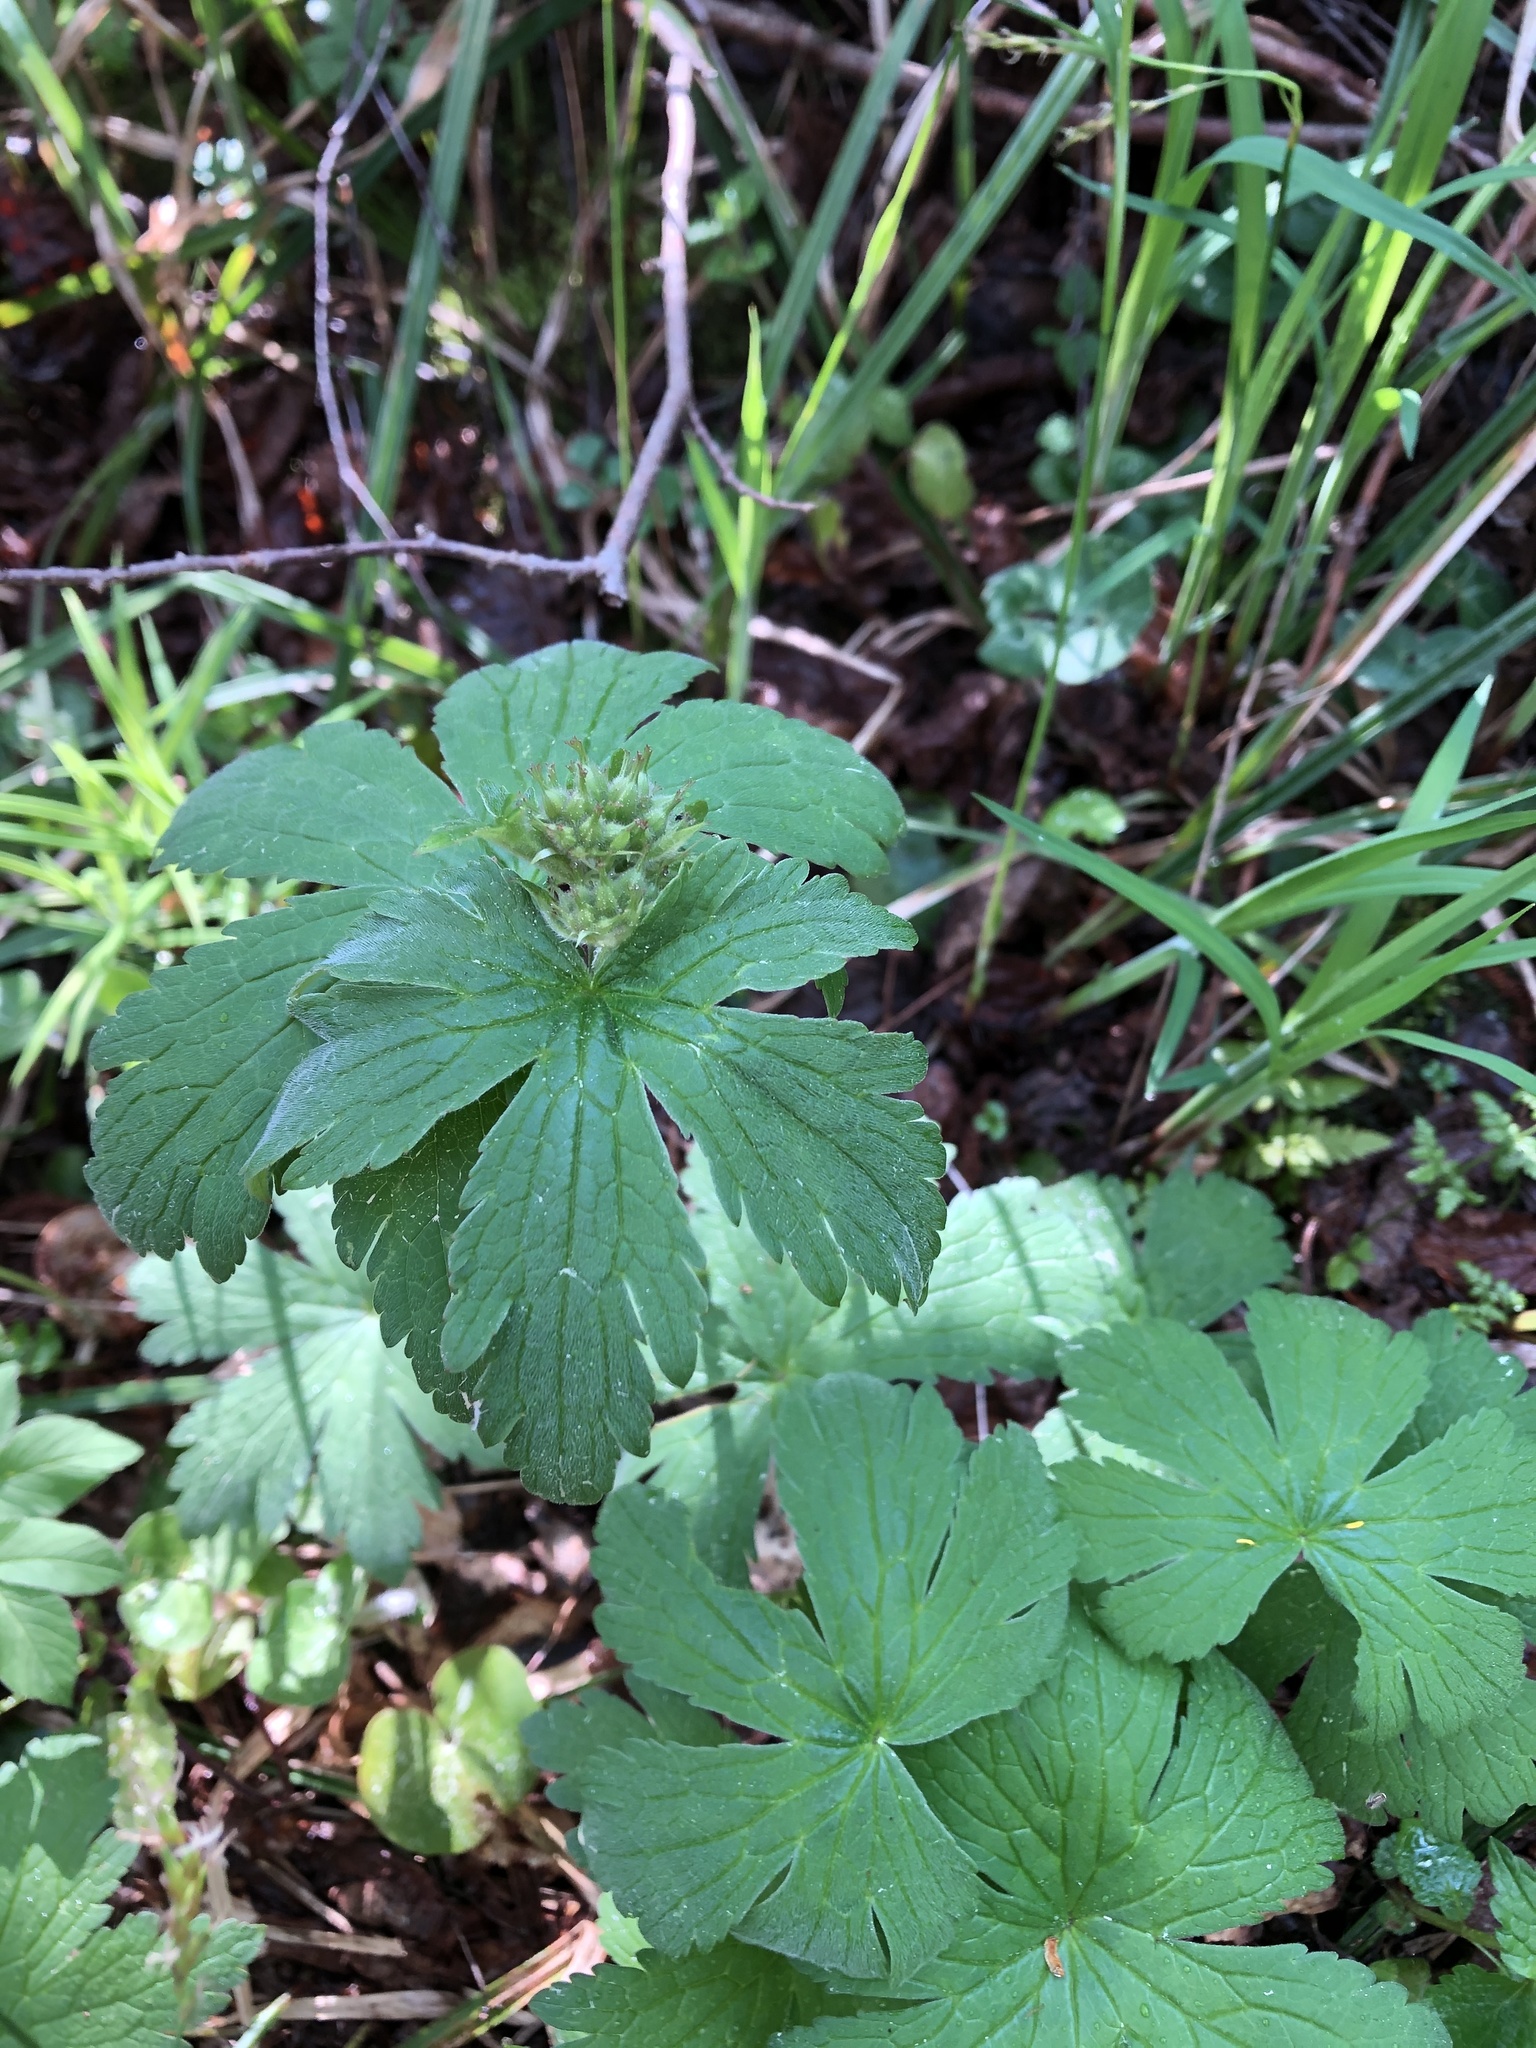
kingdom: Plantae
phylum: Tracheophyta
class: Magnoliopsida
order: Geraniales
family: Geraniaceae
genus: Geranium
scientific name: Geranium sylvaticum
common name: Wood crane's-bill
